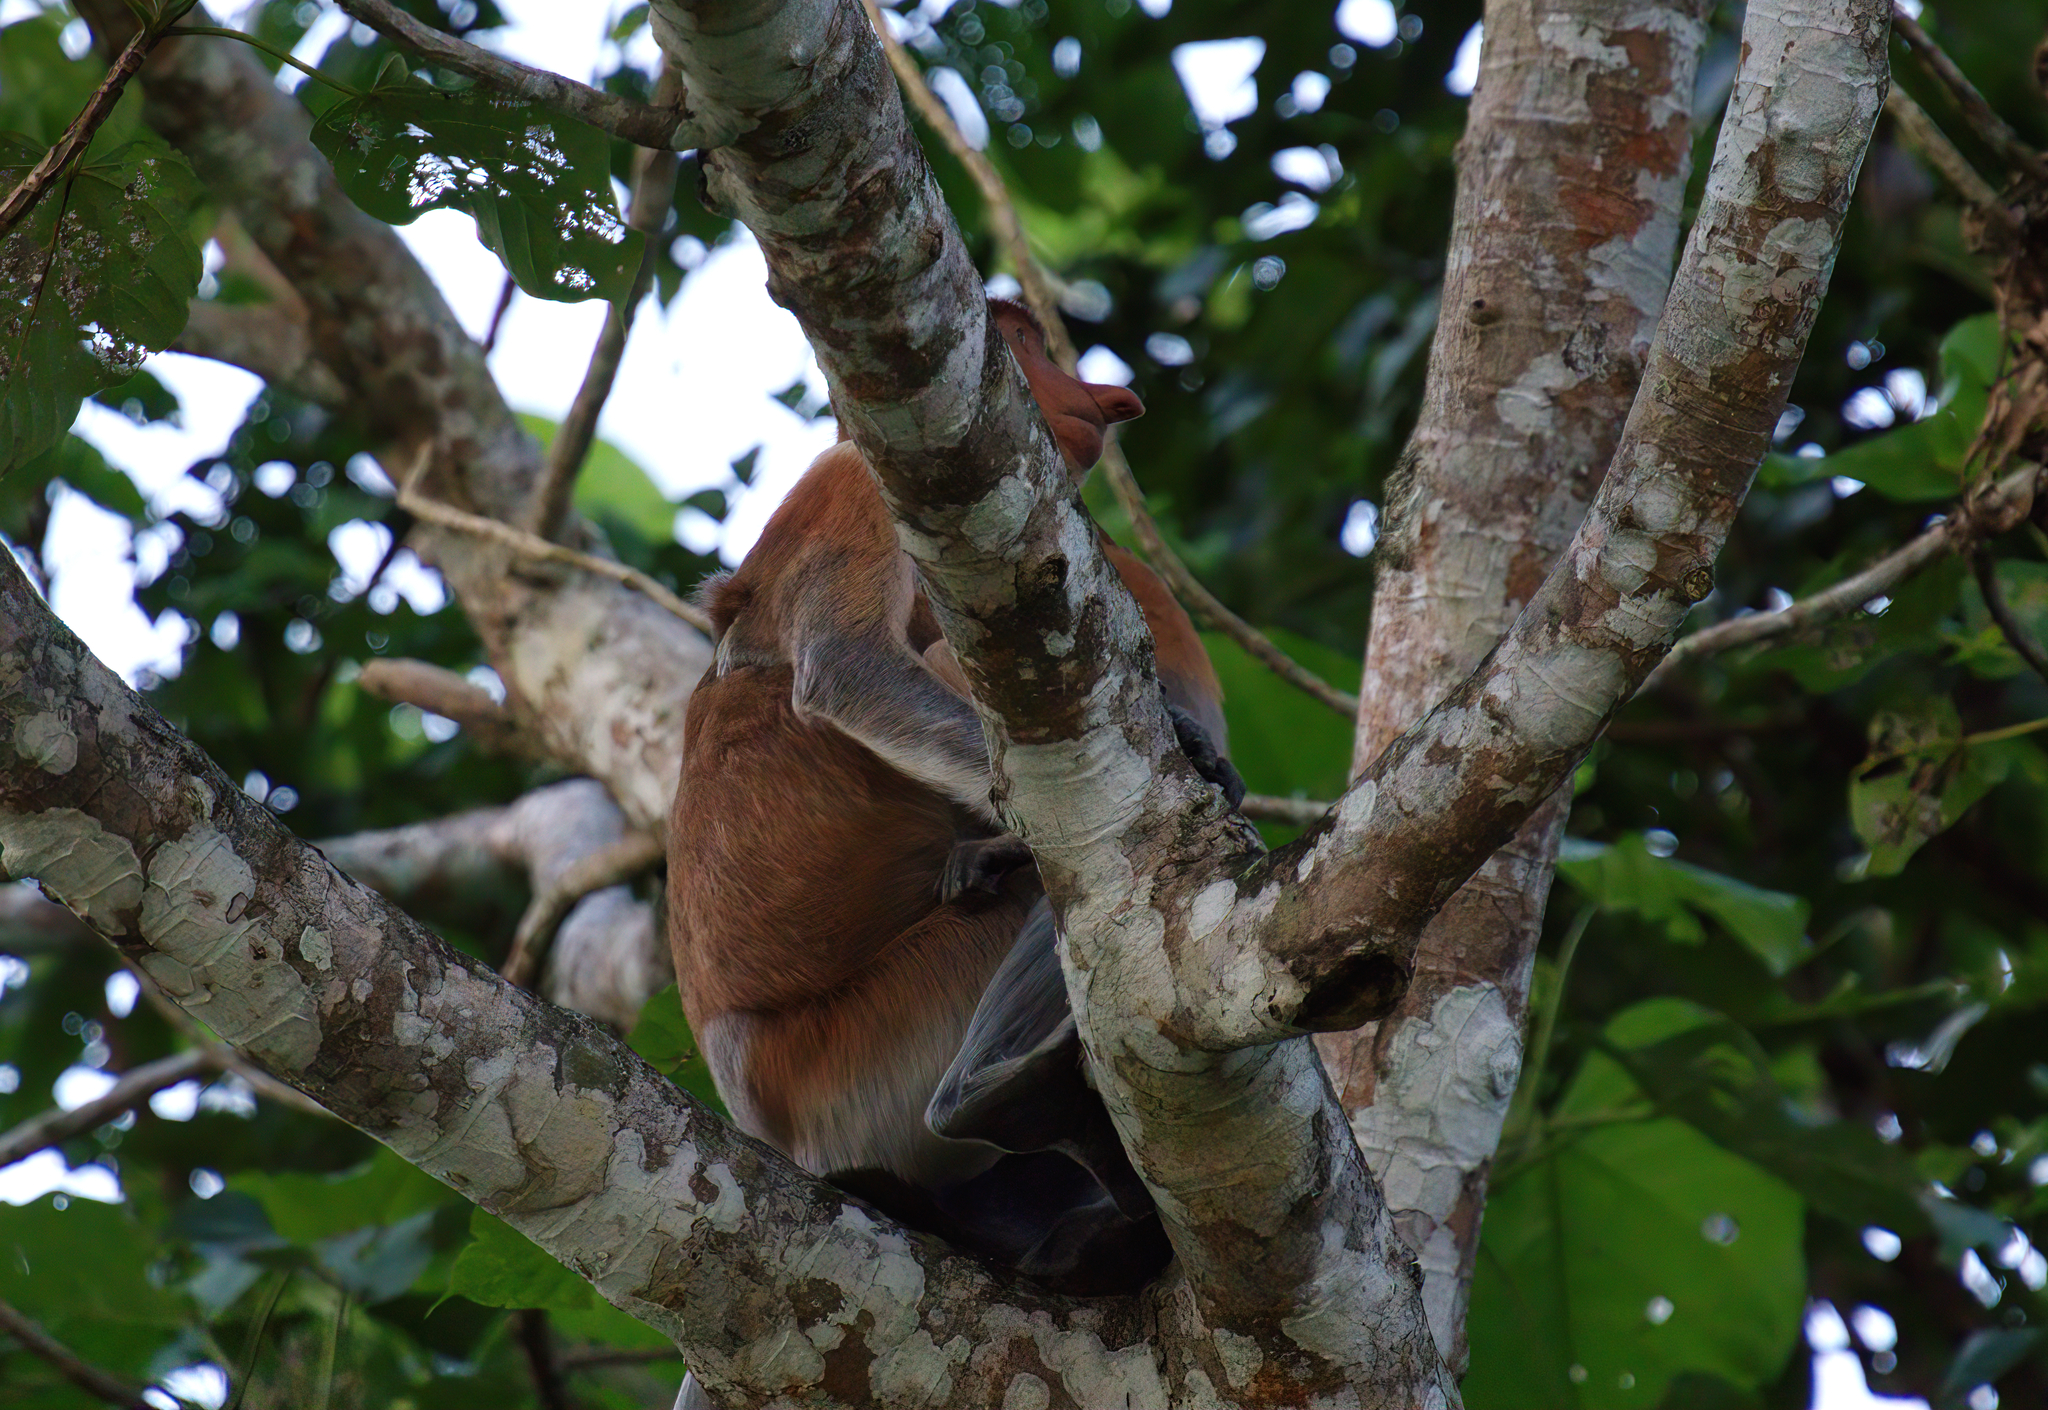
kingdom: Animalia
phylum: Chordata
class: Mammalia
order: Primates
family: Cercopithecidae
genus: Nasalis
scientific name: Nasalis larvatus
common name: Proboscis monkey
